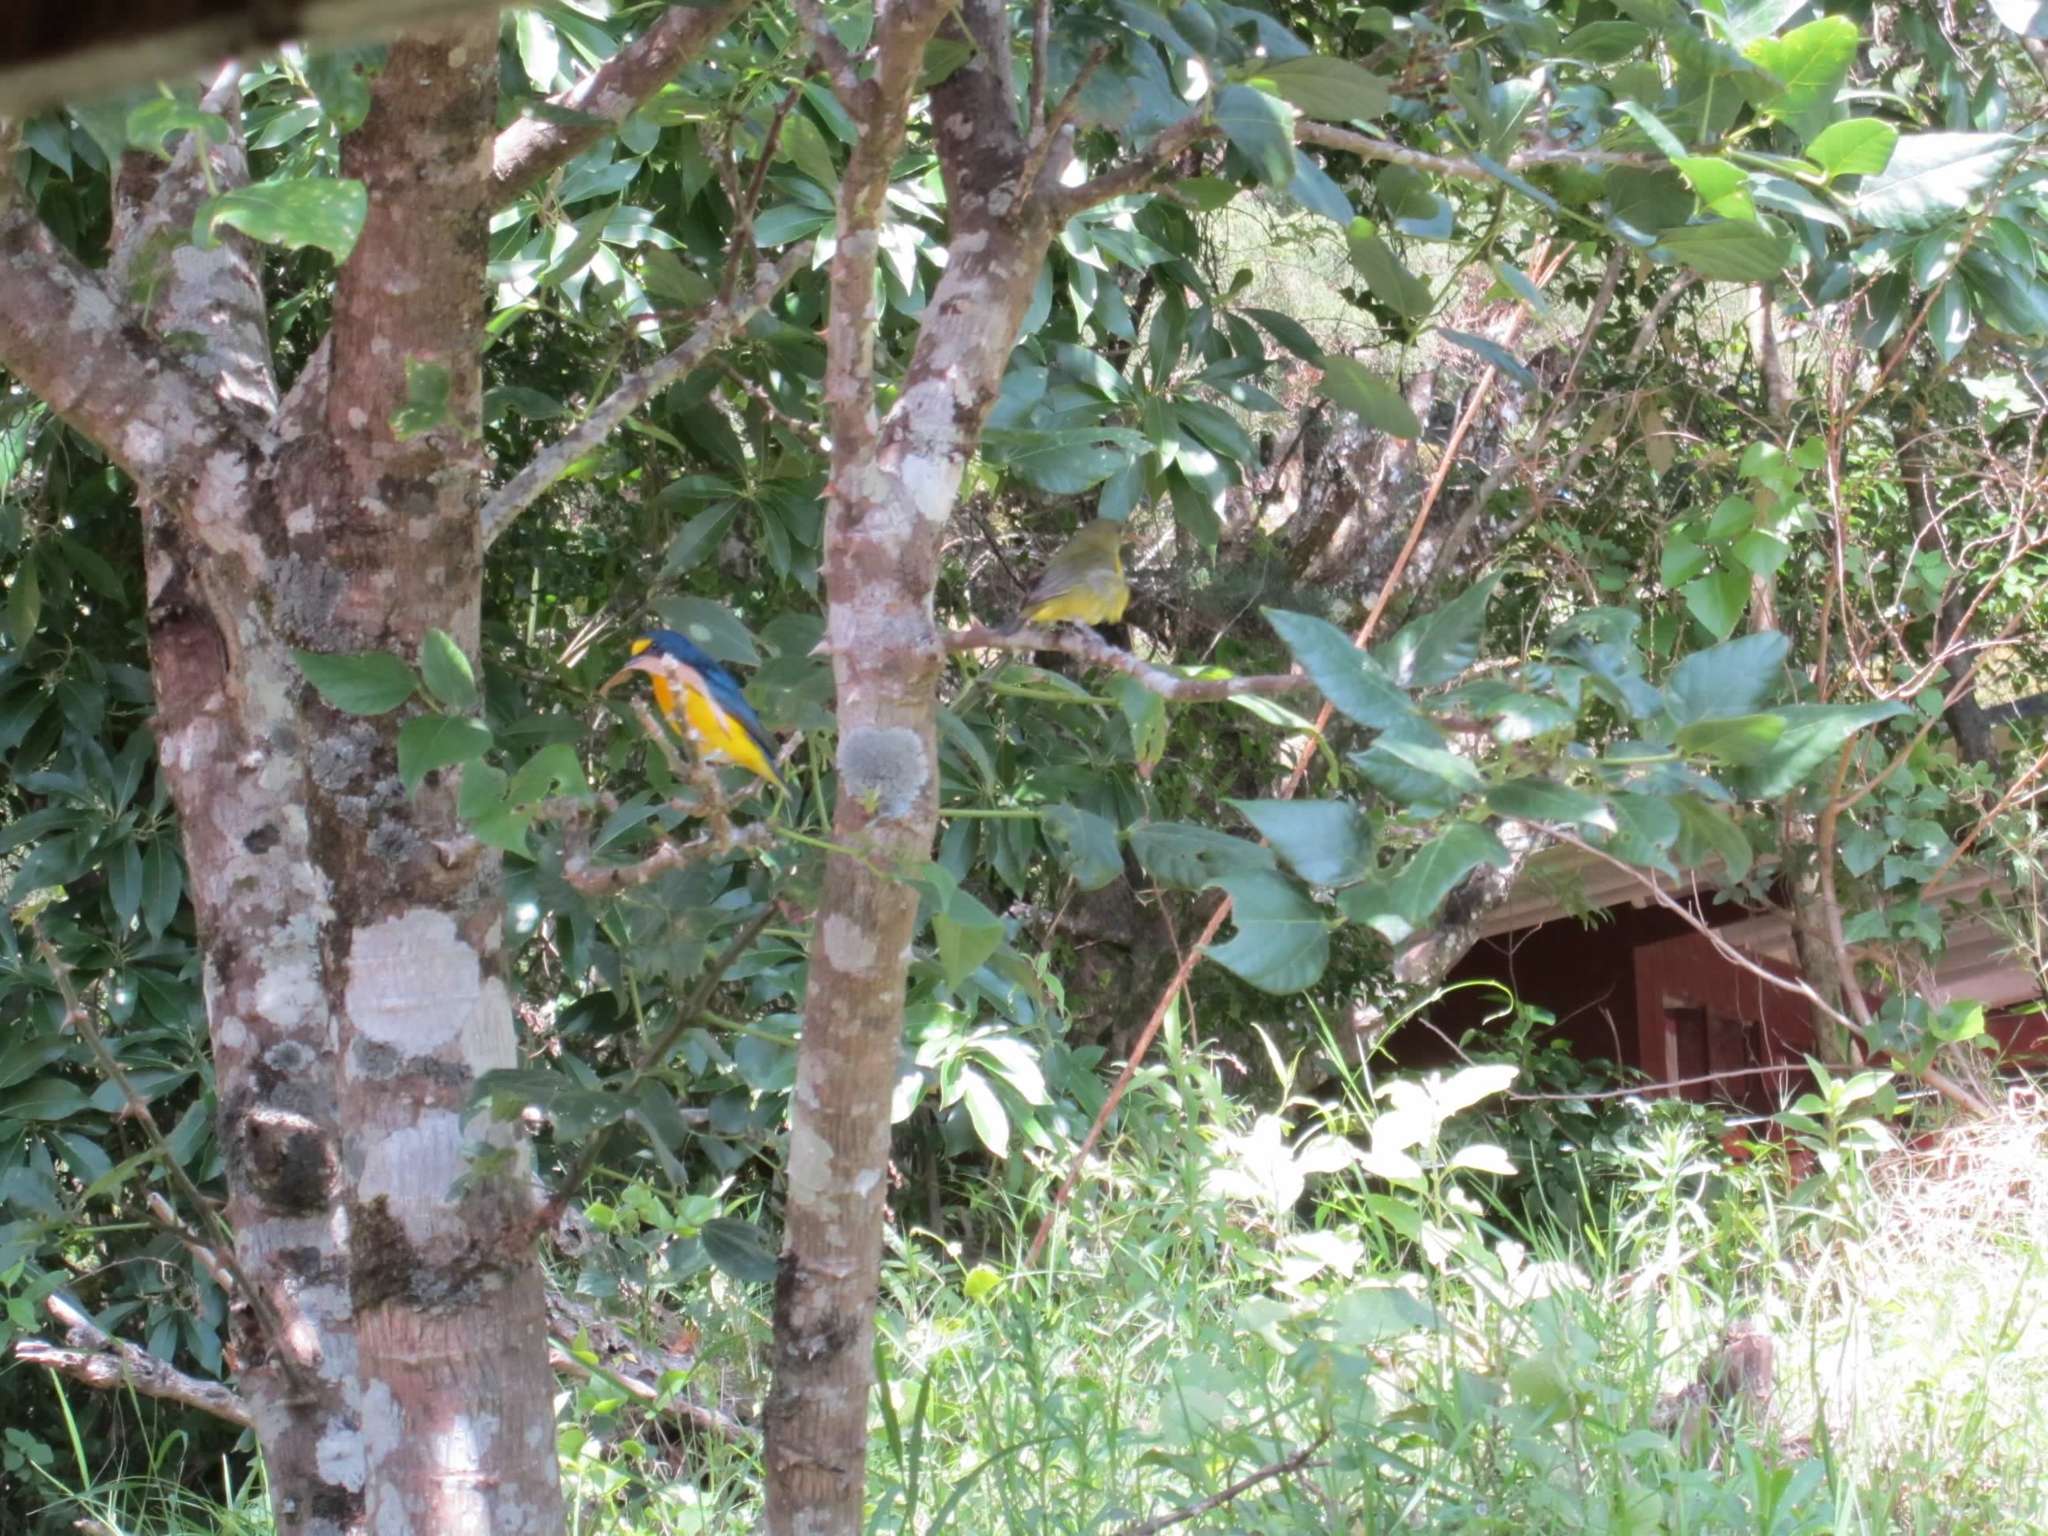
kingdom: Animalia
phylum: Chordata
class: Aves
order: Passeriformes
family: Fringillidae
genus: Euphonia
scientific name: Euphonia hirundinacea
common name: Yellow-throated euphonia
